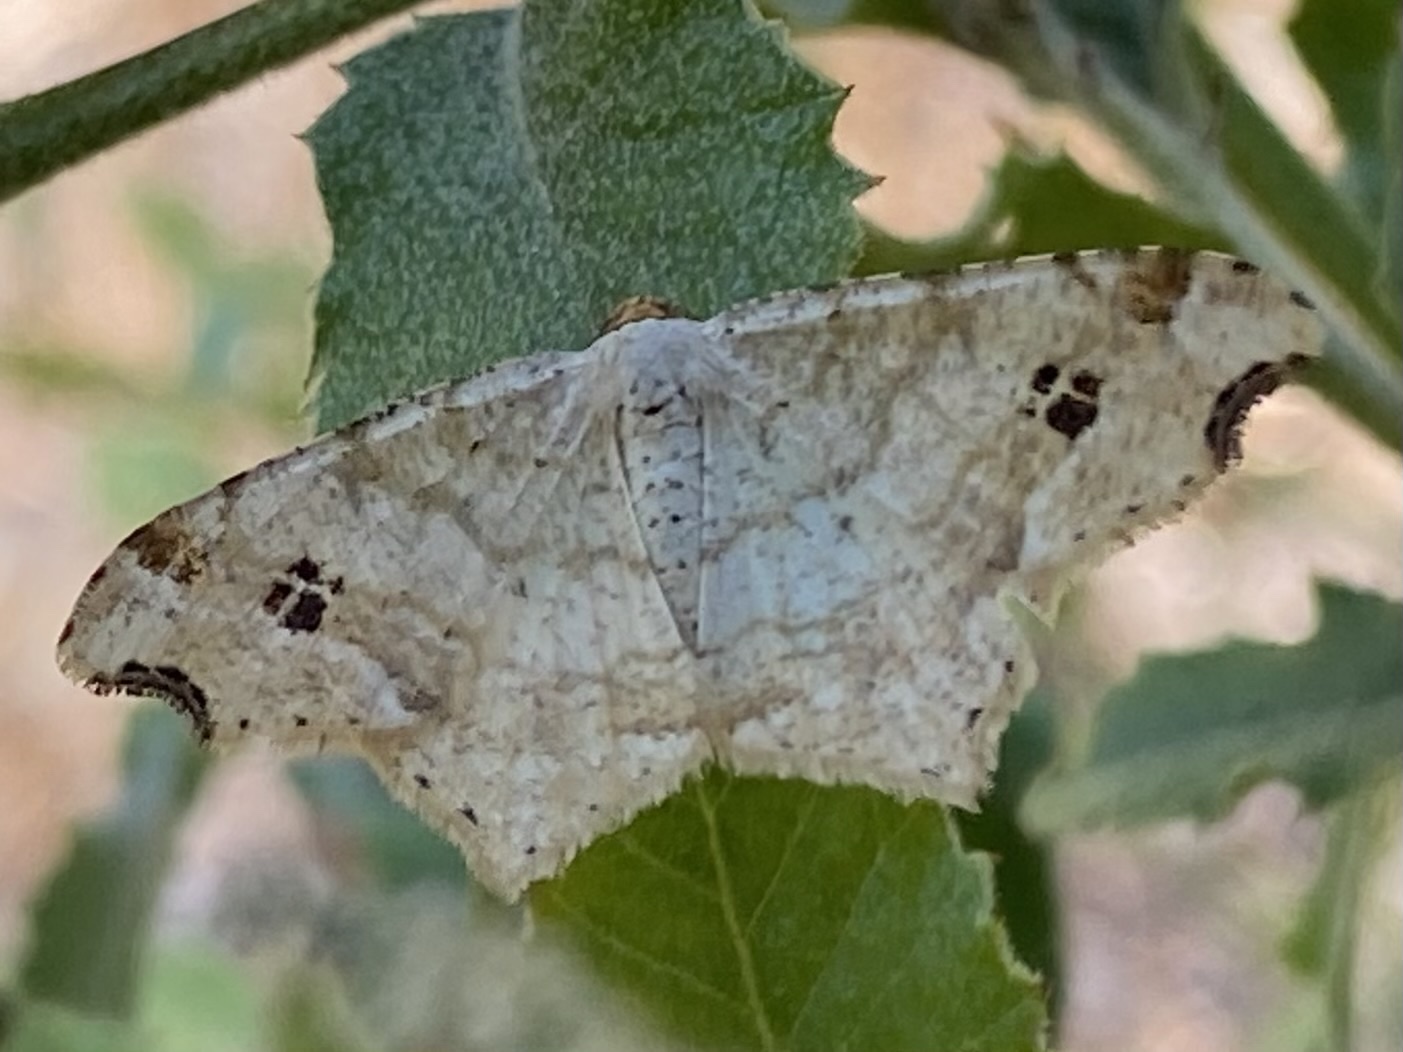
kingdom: Animalia
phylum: Arthropoda
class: Insecta
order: Lepidoptera
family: Geometridae
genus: Macaria
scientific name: Macaria aemulataria
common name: Common angle
